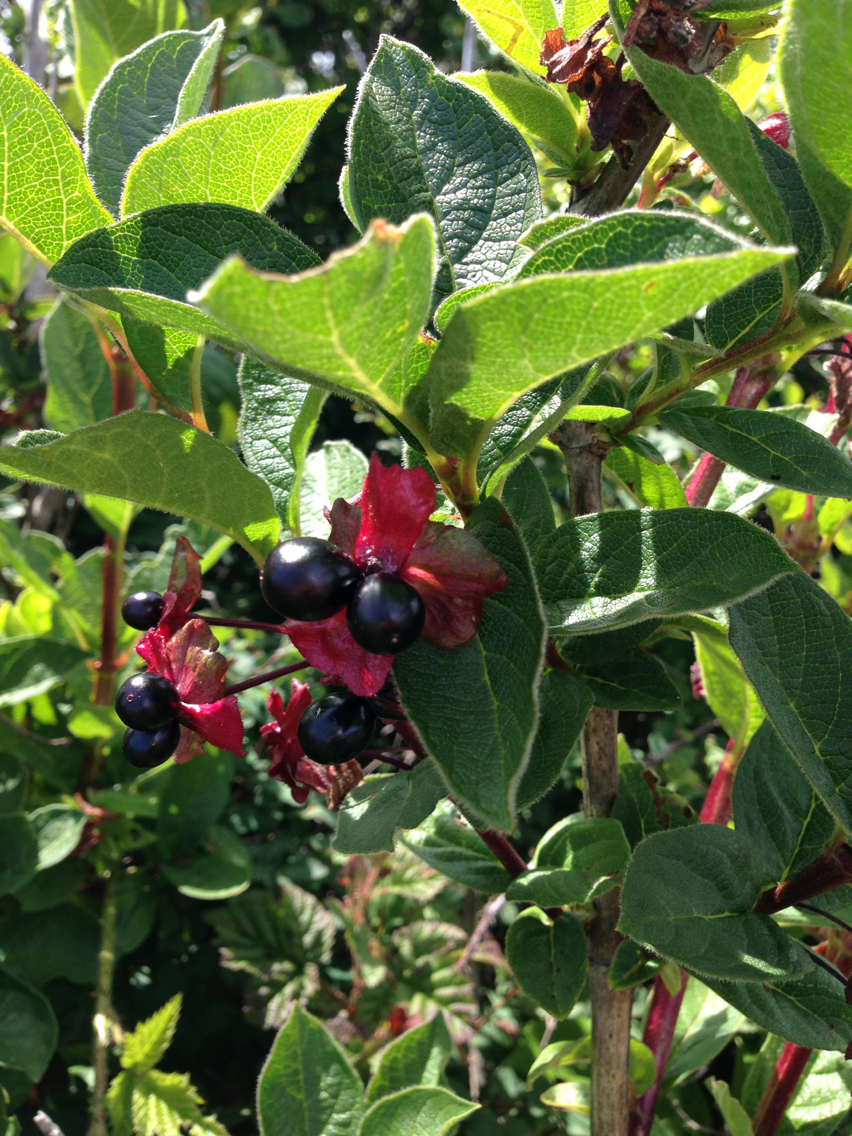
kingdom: Plantae
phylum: Tracheophyta
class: Magnoliopsida
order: Dipsacales
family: Caprifoliaceae
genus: Lonicera
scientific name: Lonicera involucrata
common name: Californian honeysuckle
